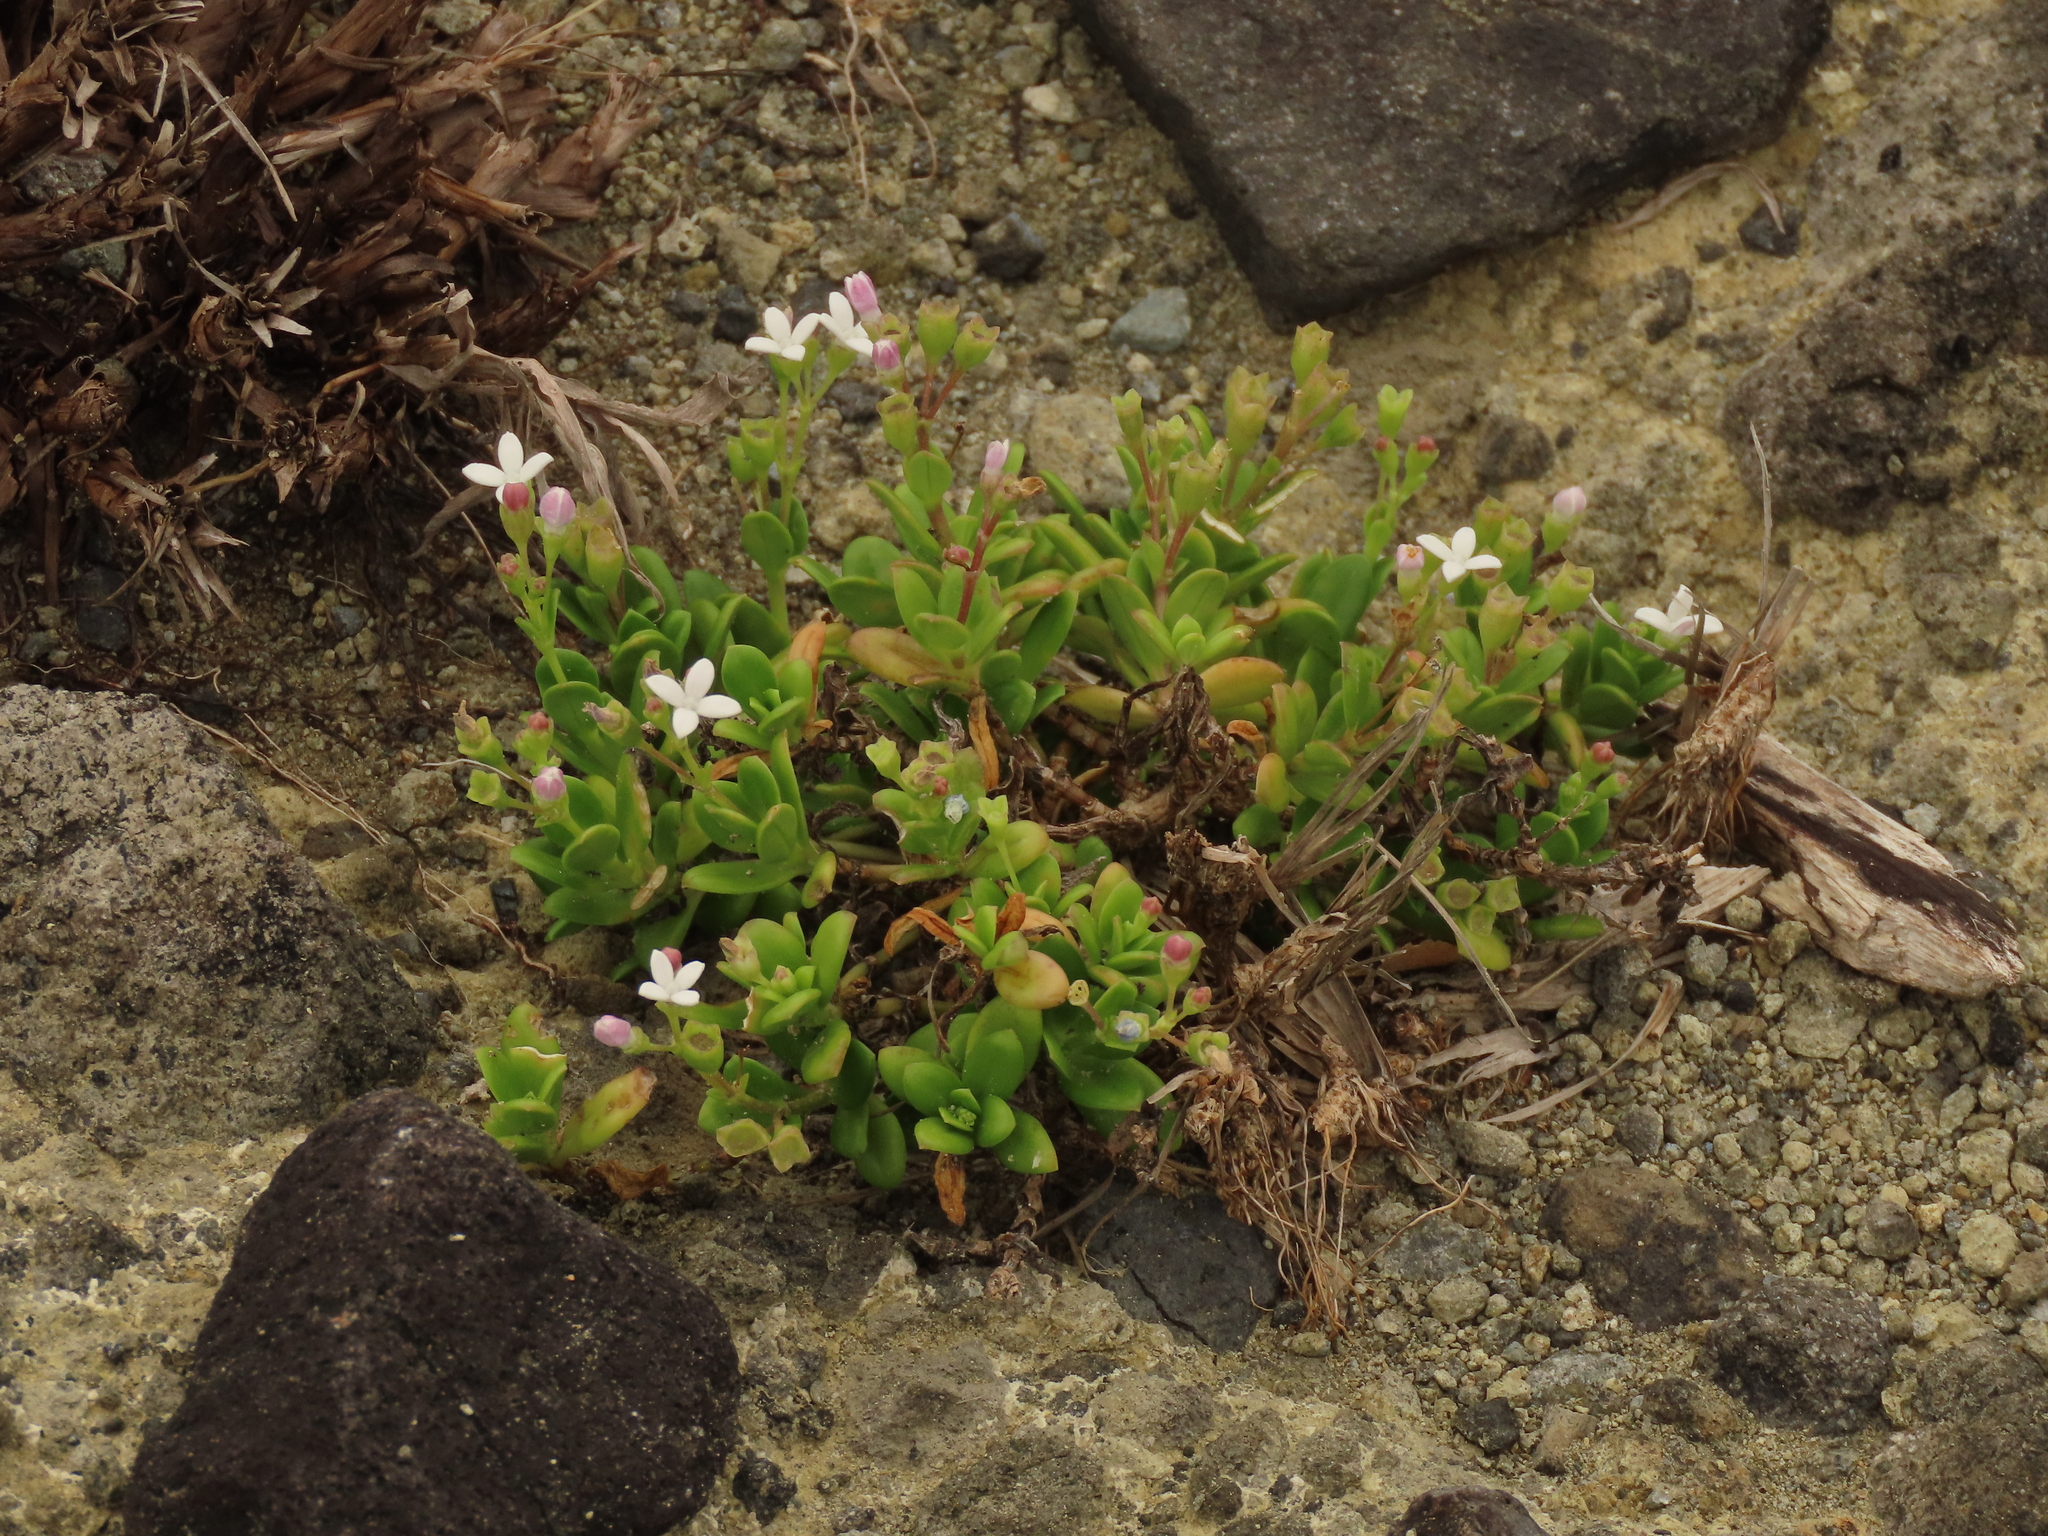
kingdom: Plantae
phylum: Tracheophyta
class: Magnoliopsida
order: Gentianales
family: Rubiaceae
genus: Leptopetalum
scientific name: Leptopetalum strigulosum
